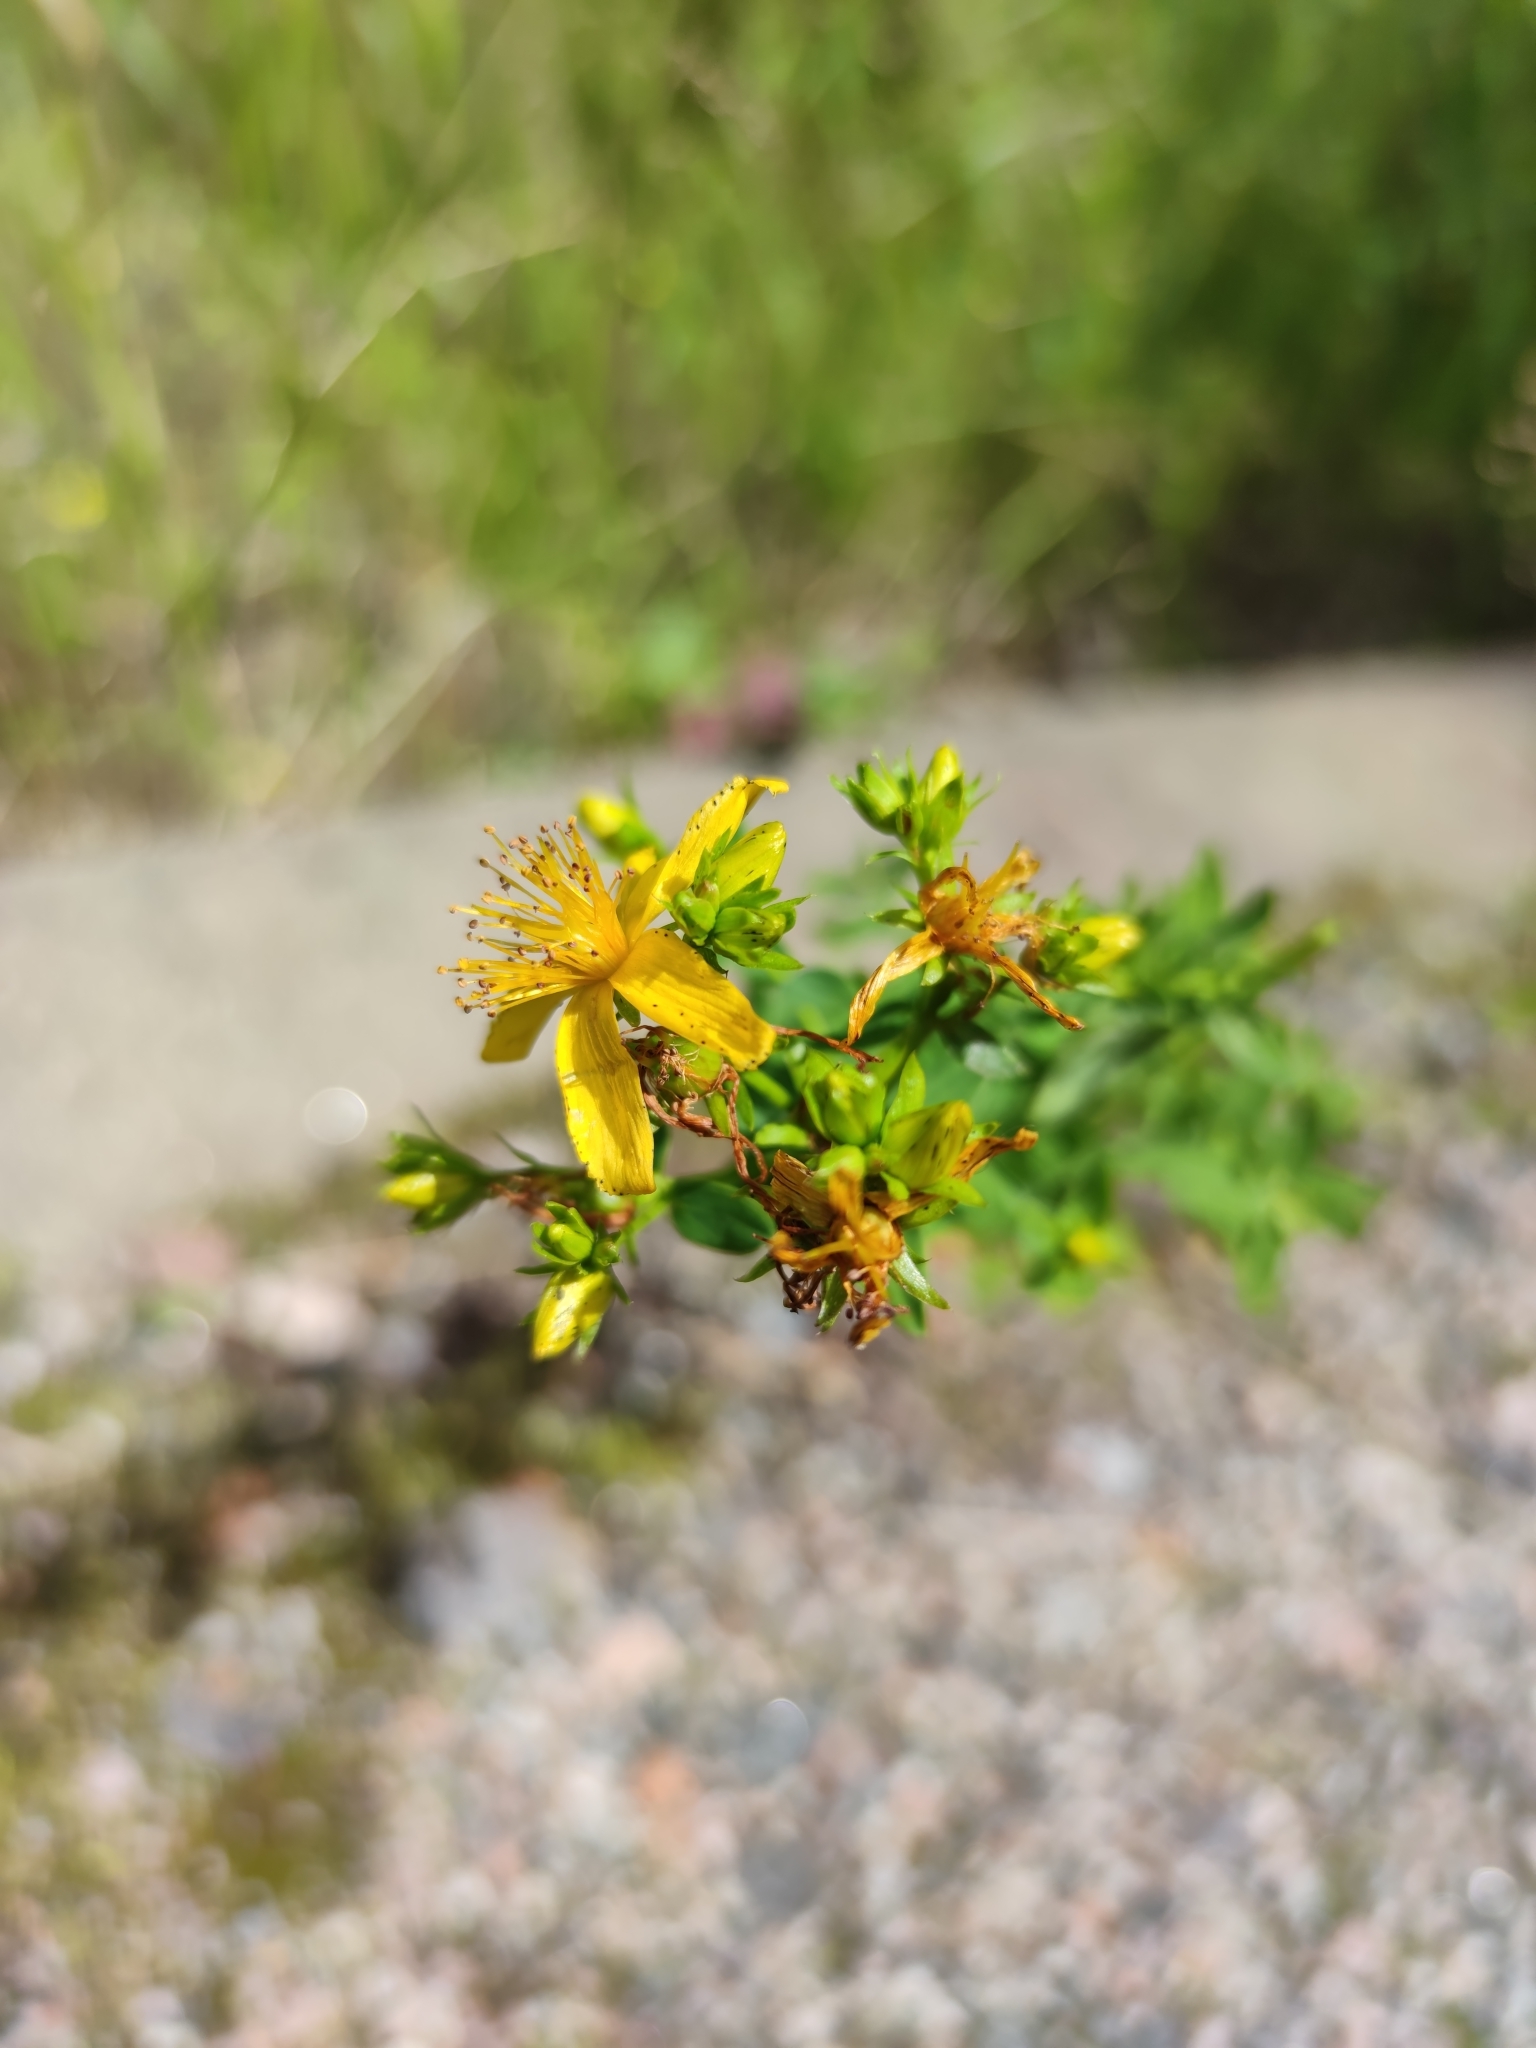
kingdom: Plantae
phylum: Tracheophyta
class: Magnoliopsida
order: Malpighiales
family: Hypericaceae
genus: Hypericum
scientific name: Hypericum perforatum
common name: Common st. johnswort
